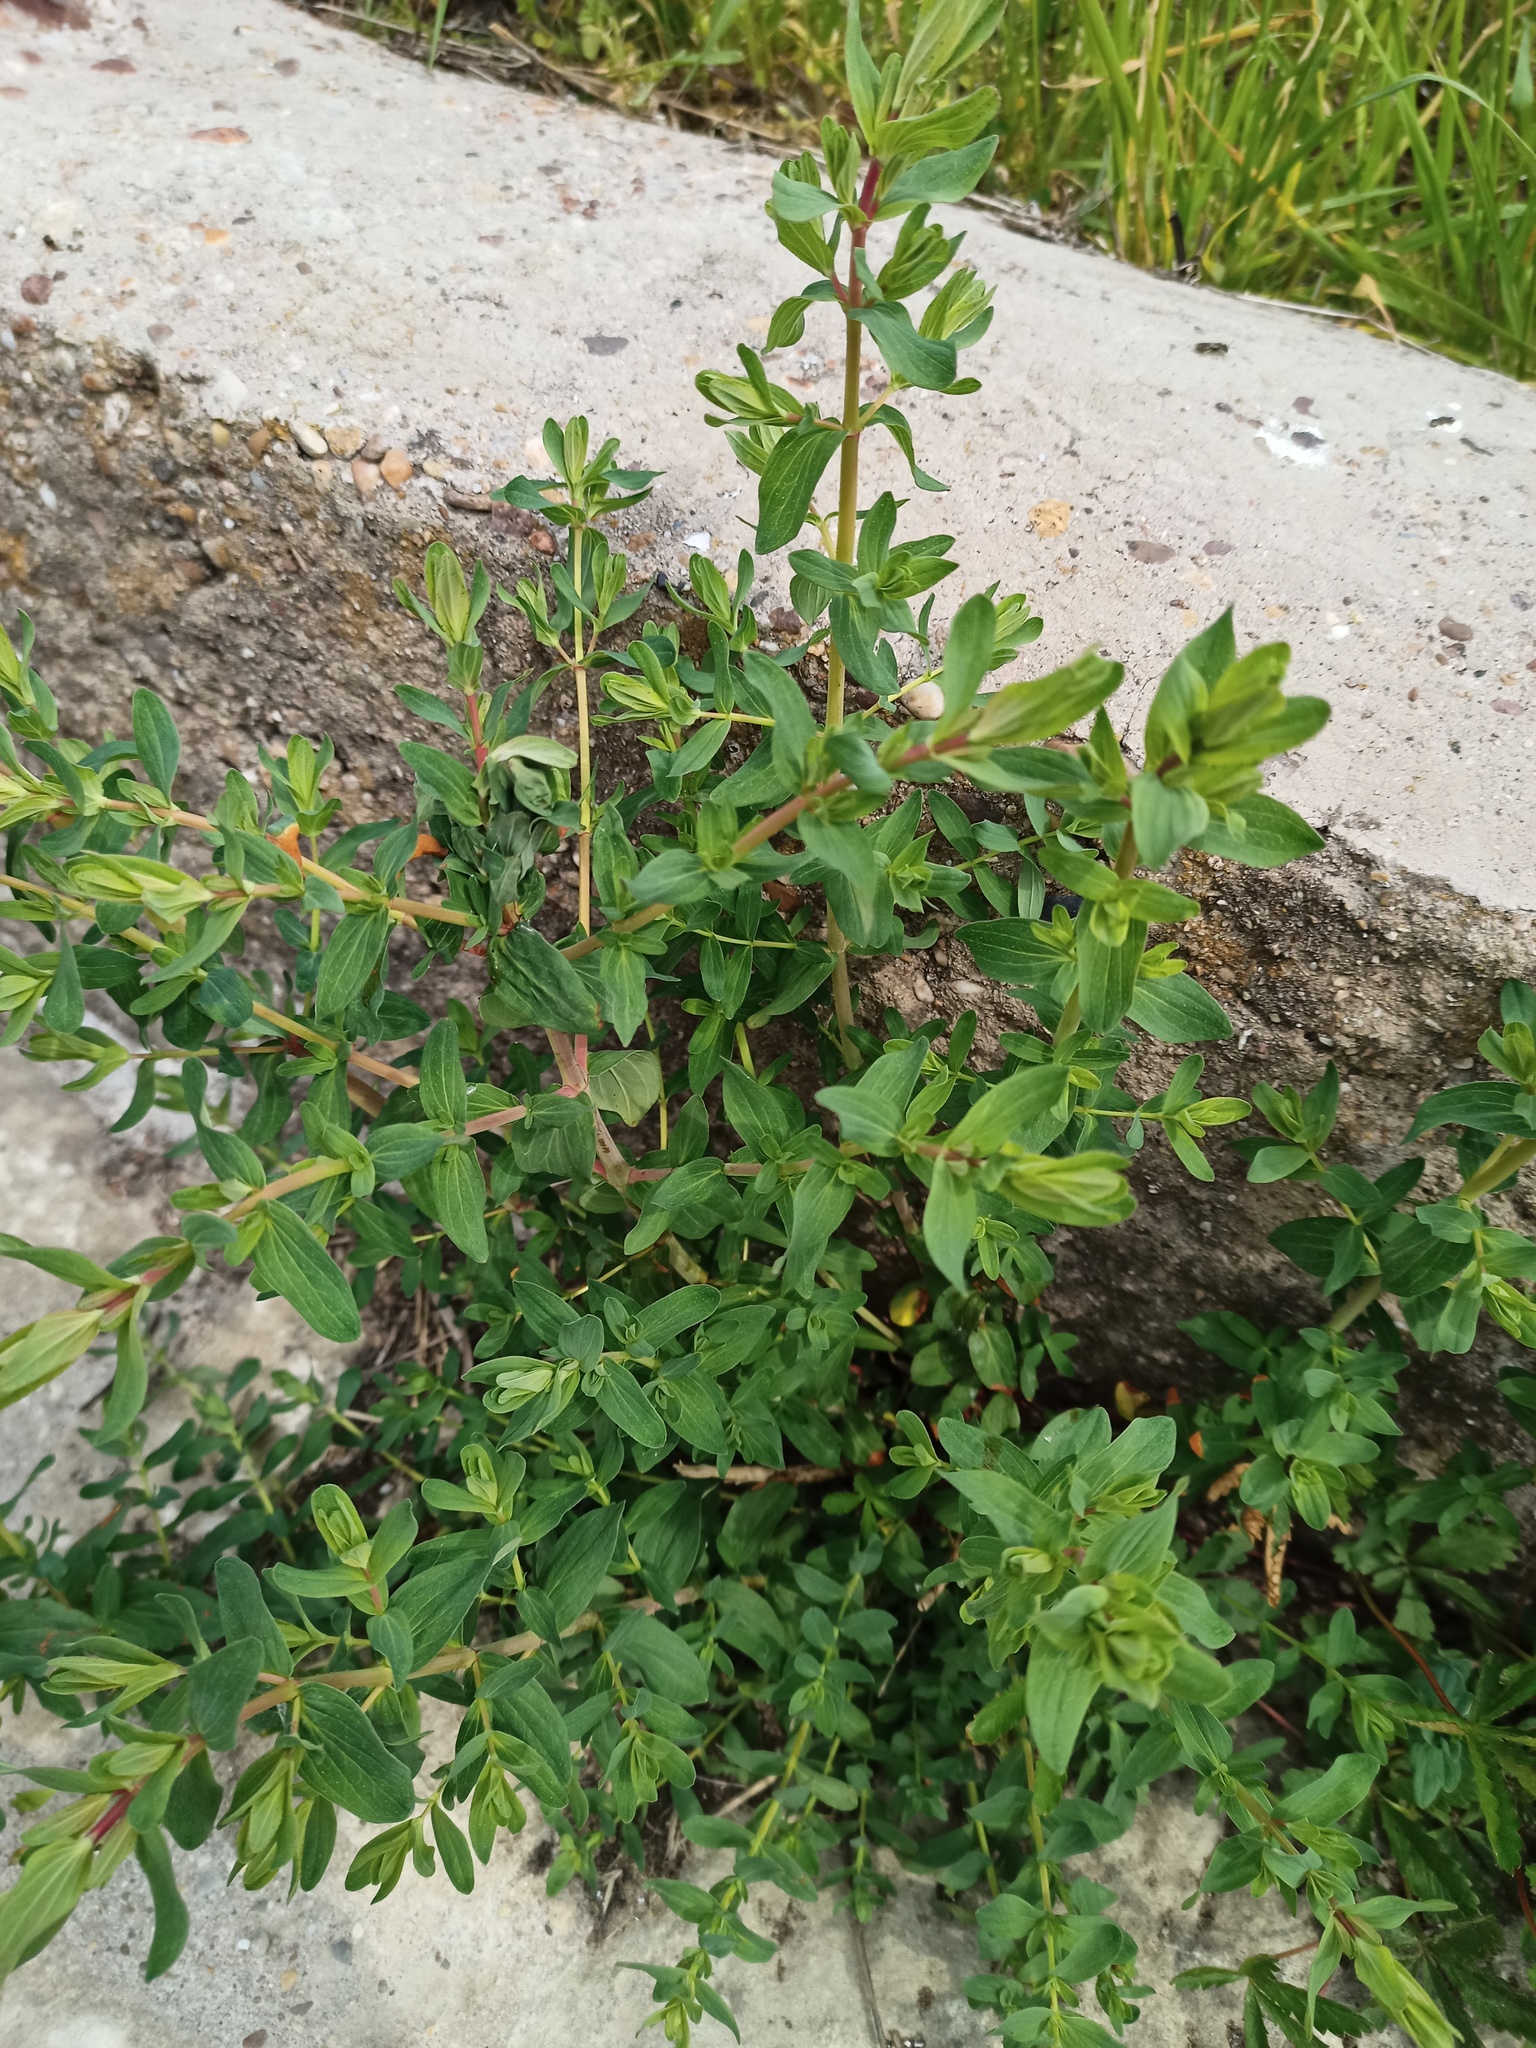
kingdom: Plantae
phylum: Tracheophyta
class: Magnoliopsida
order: Malpighiales
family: Hypericaceae
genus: Hypericum
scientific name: Hypericum perforatum
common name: Common st. johnswort
